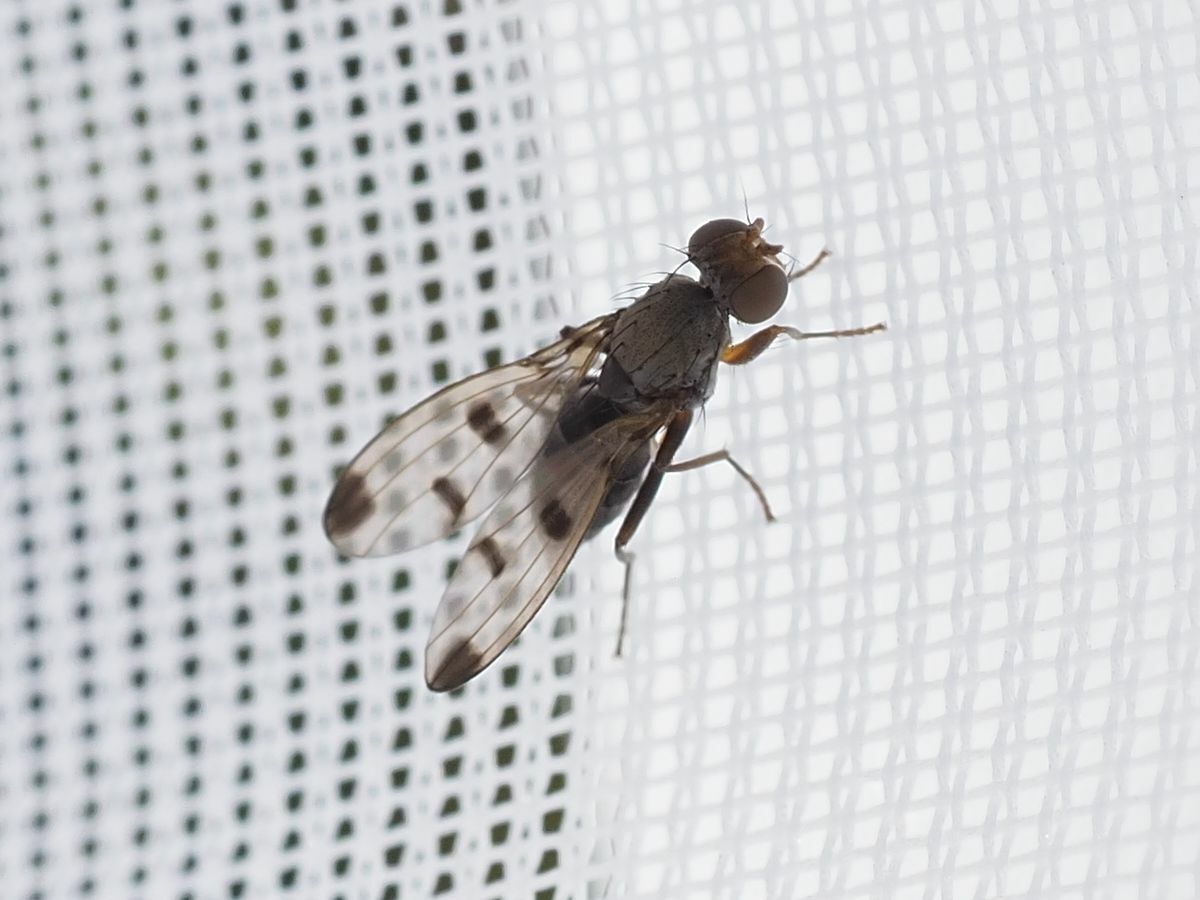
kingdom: Animalia
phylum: Arthropoda
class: Insecta
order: Diptera
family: Opomyzidae
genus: Geomyza
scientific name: Geomyza tripunctata
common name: Cereal fly
